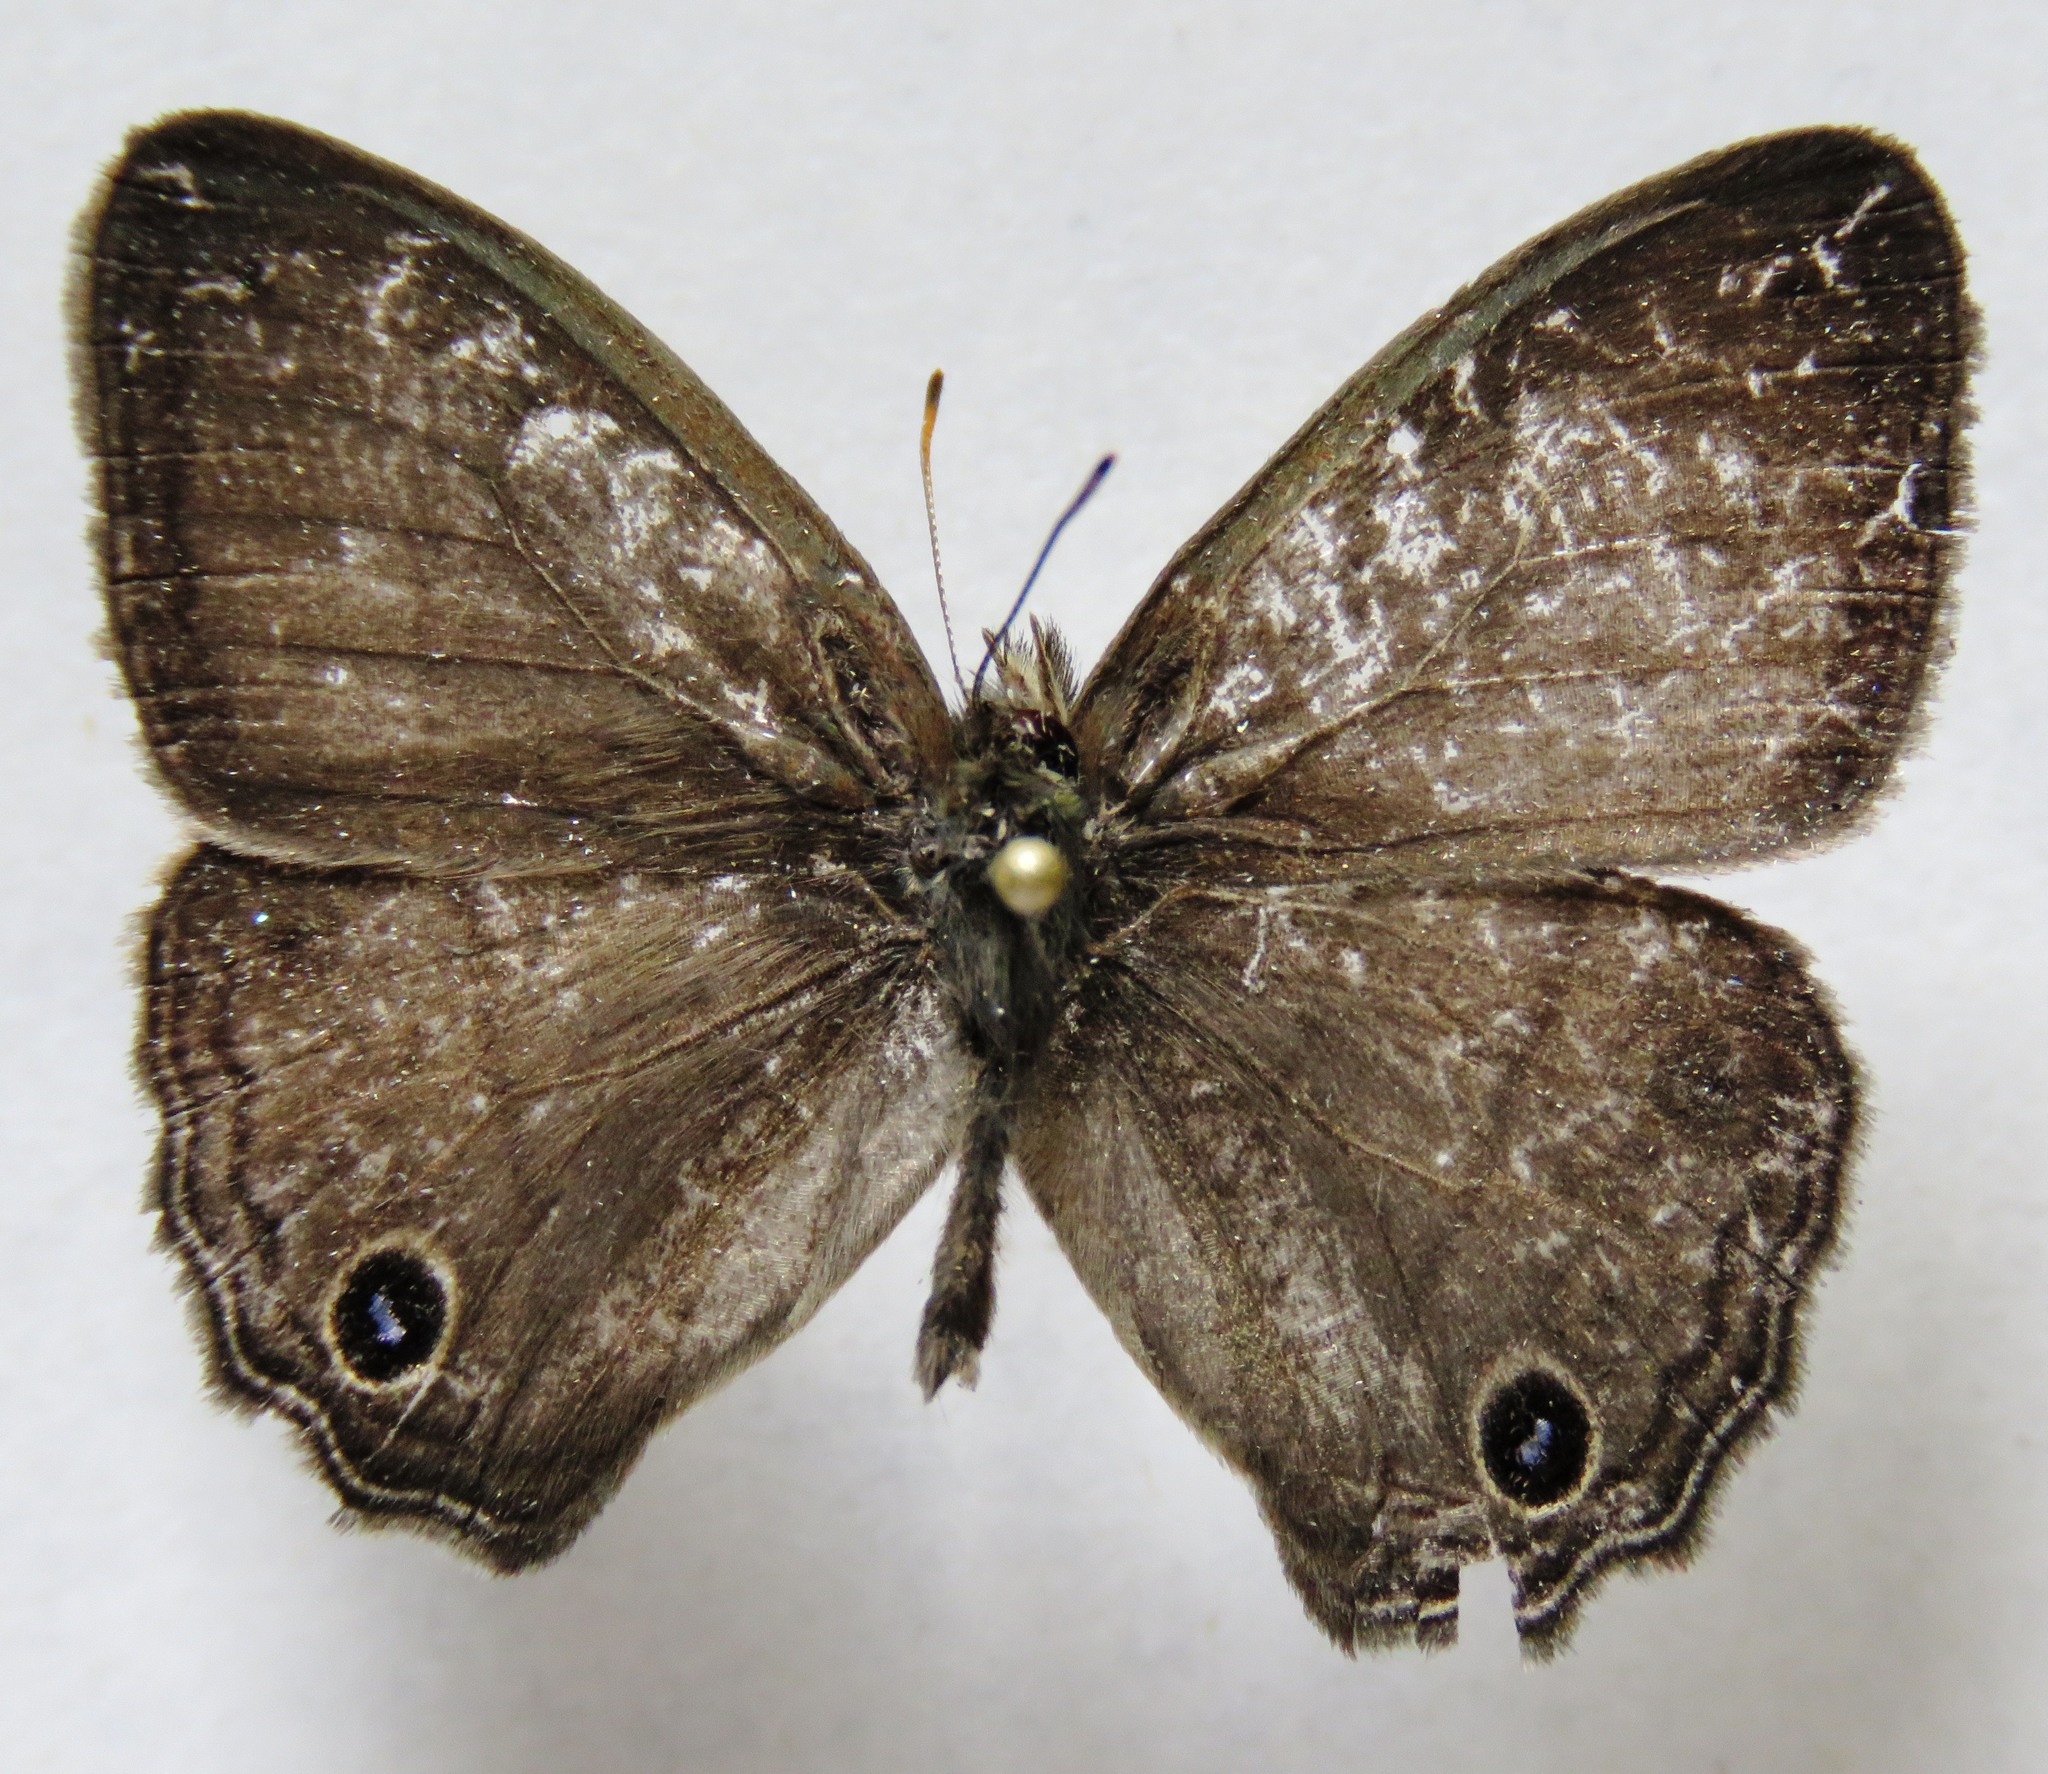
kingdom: Animalia
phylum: Arthropoda
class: Insecta
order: Lepidoptera
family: Nymphalidae
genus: Vareuptychia
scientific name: Vareuptychia similis
